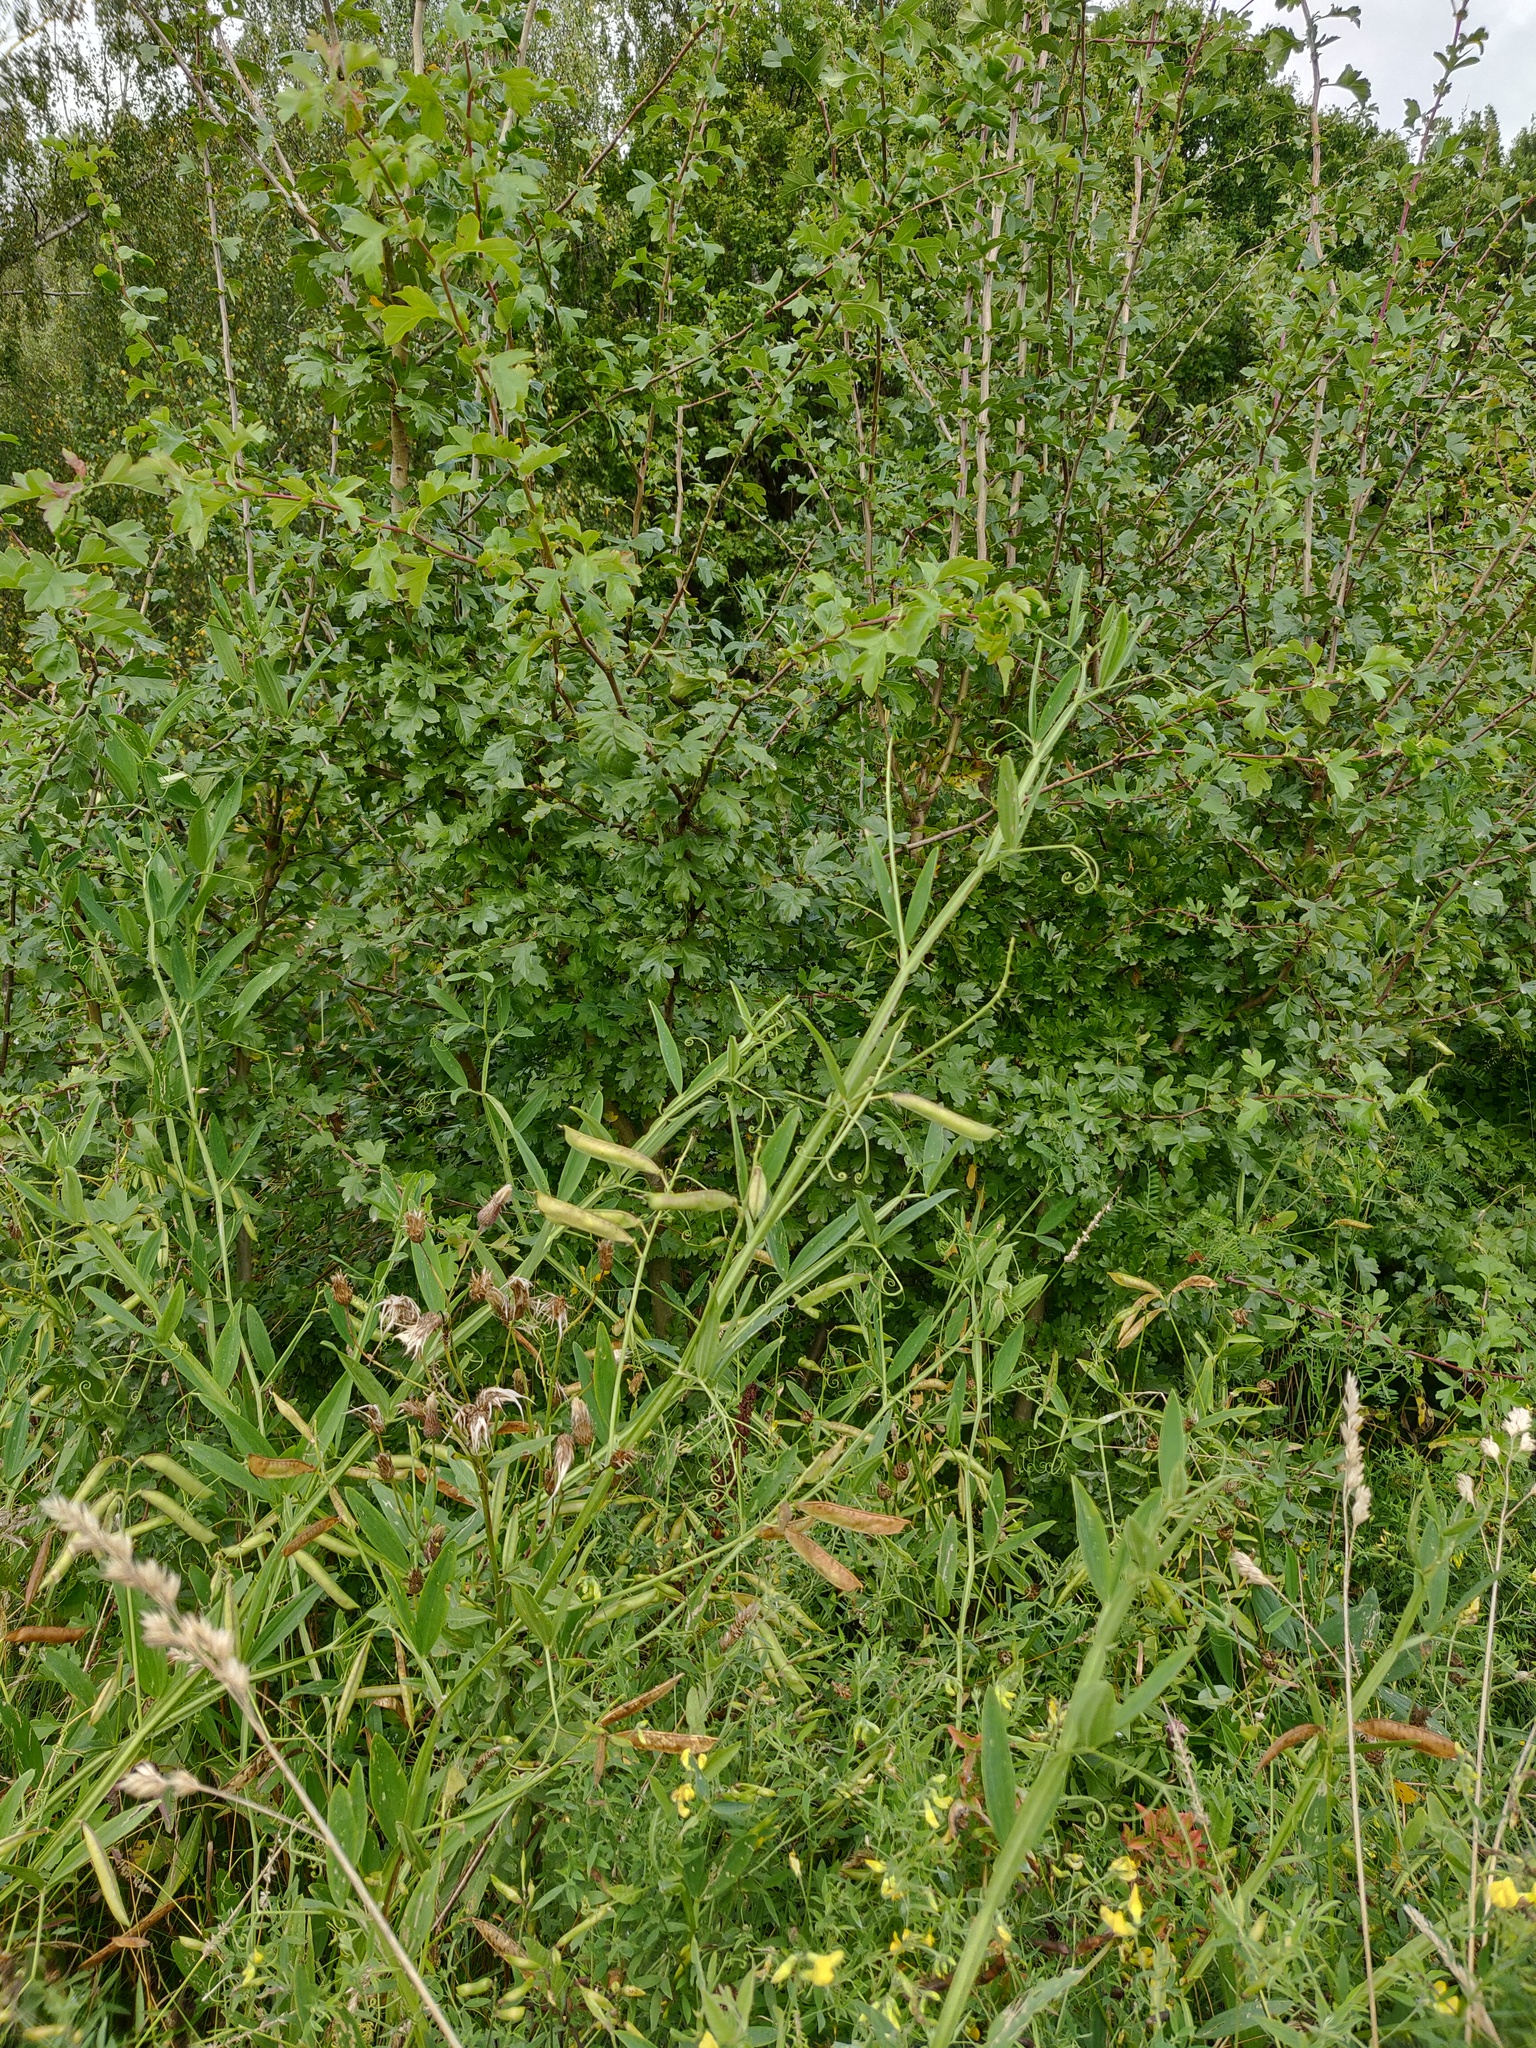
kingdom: Plantae
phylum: Tracheophyta
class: Magnoliopsida
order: Fabales
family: Fabaceae
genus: Lathyrus
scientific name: Lathyrus sylvestris
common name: Flat pea
